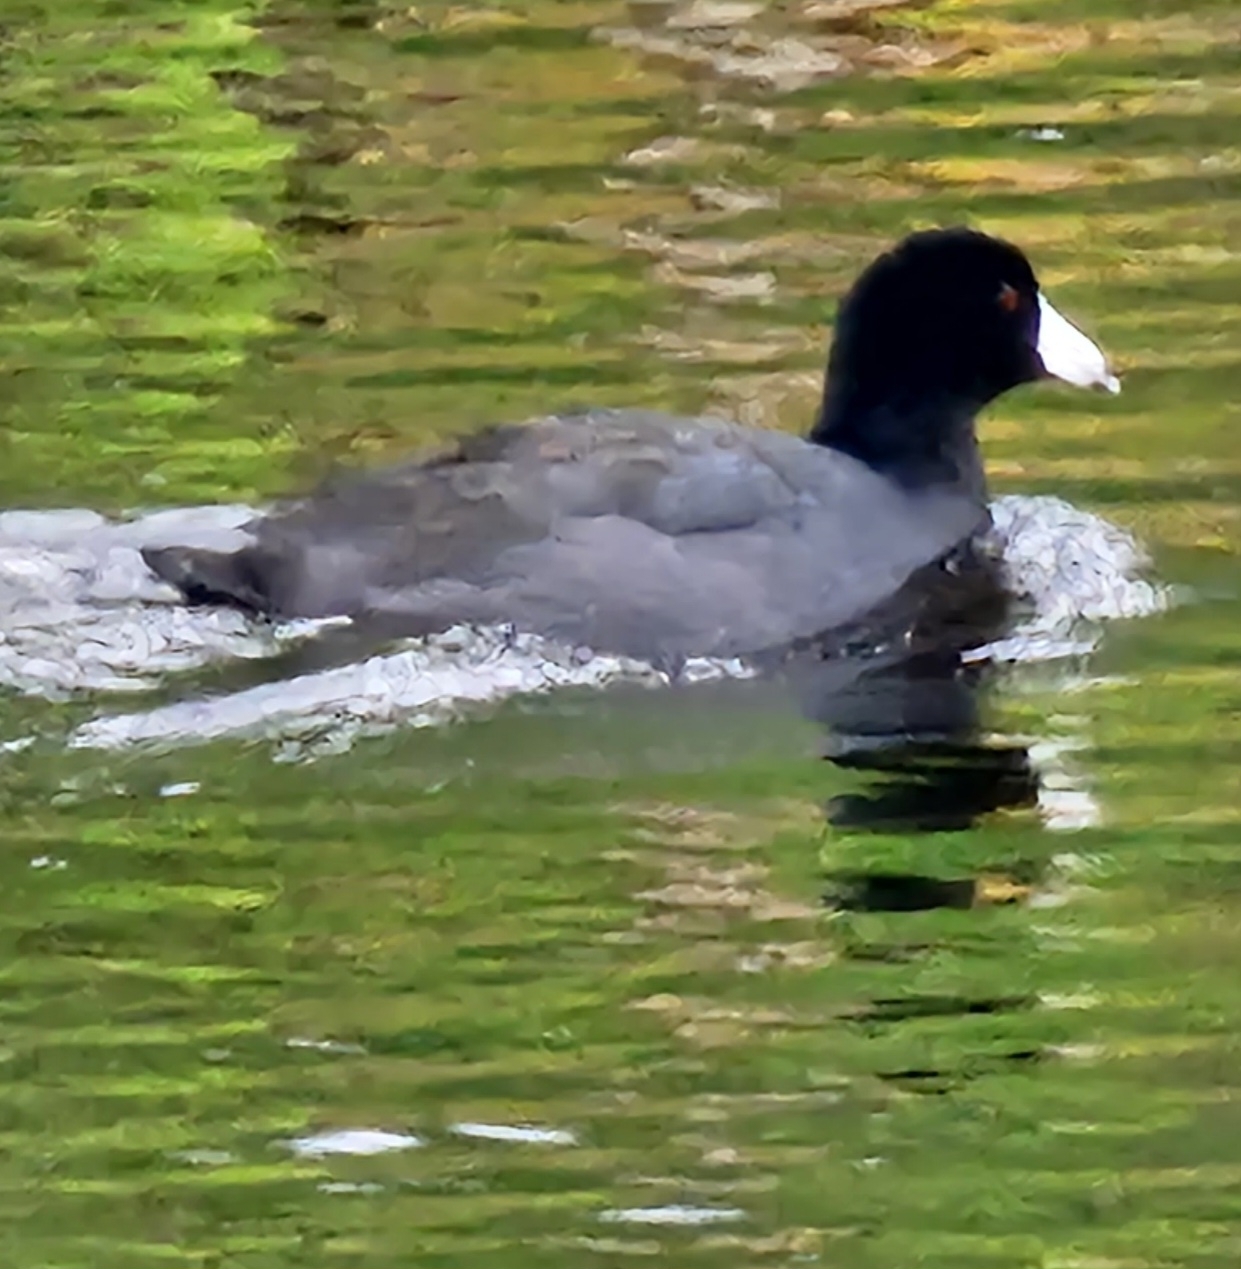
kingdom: Animalia
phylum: Chordata
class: Aves
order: Gruiformes
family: Rallidae
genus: Fulica
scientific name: Fulica americana
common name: American coot
